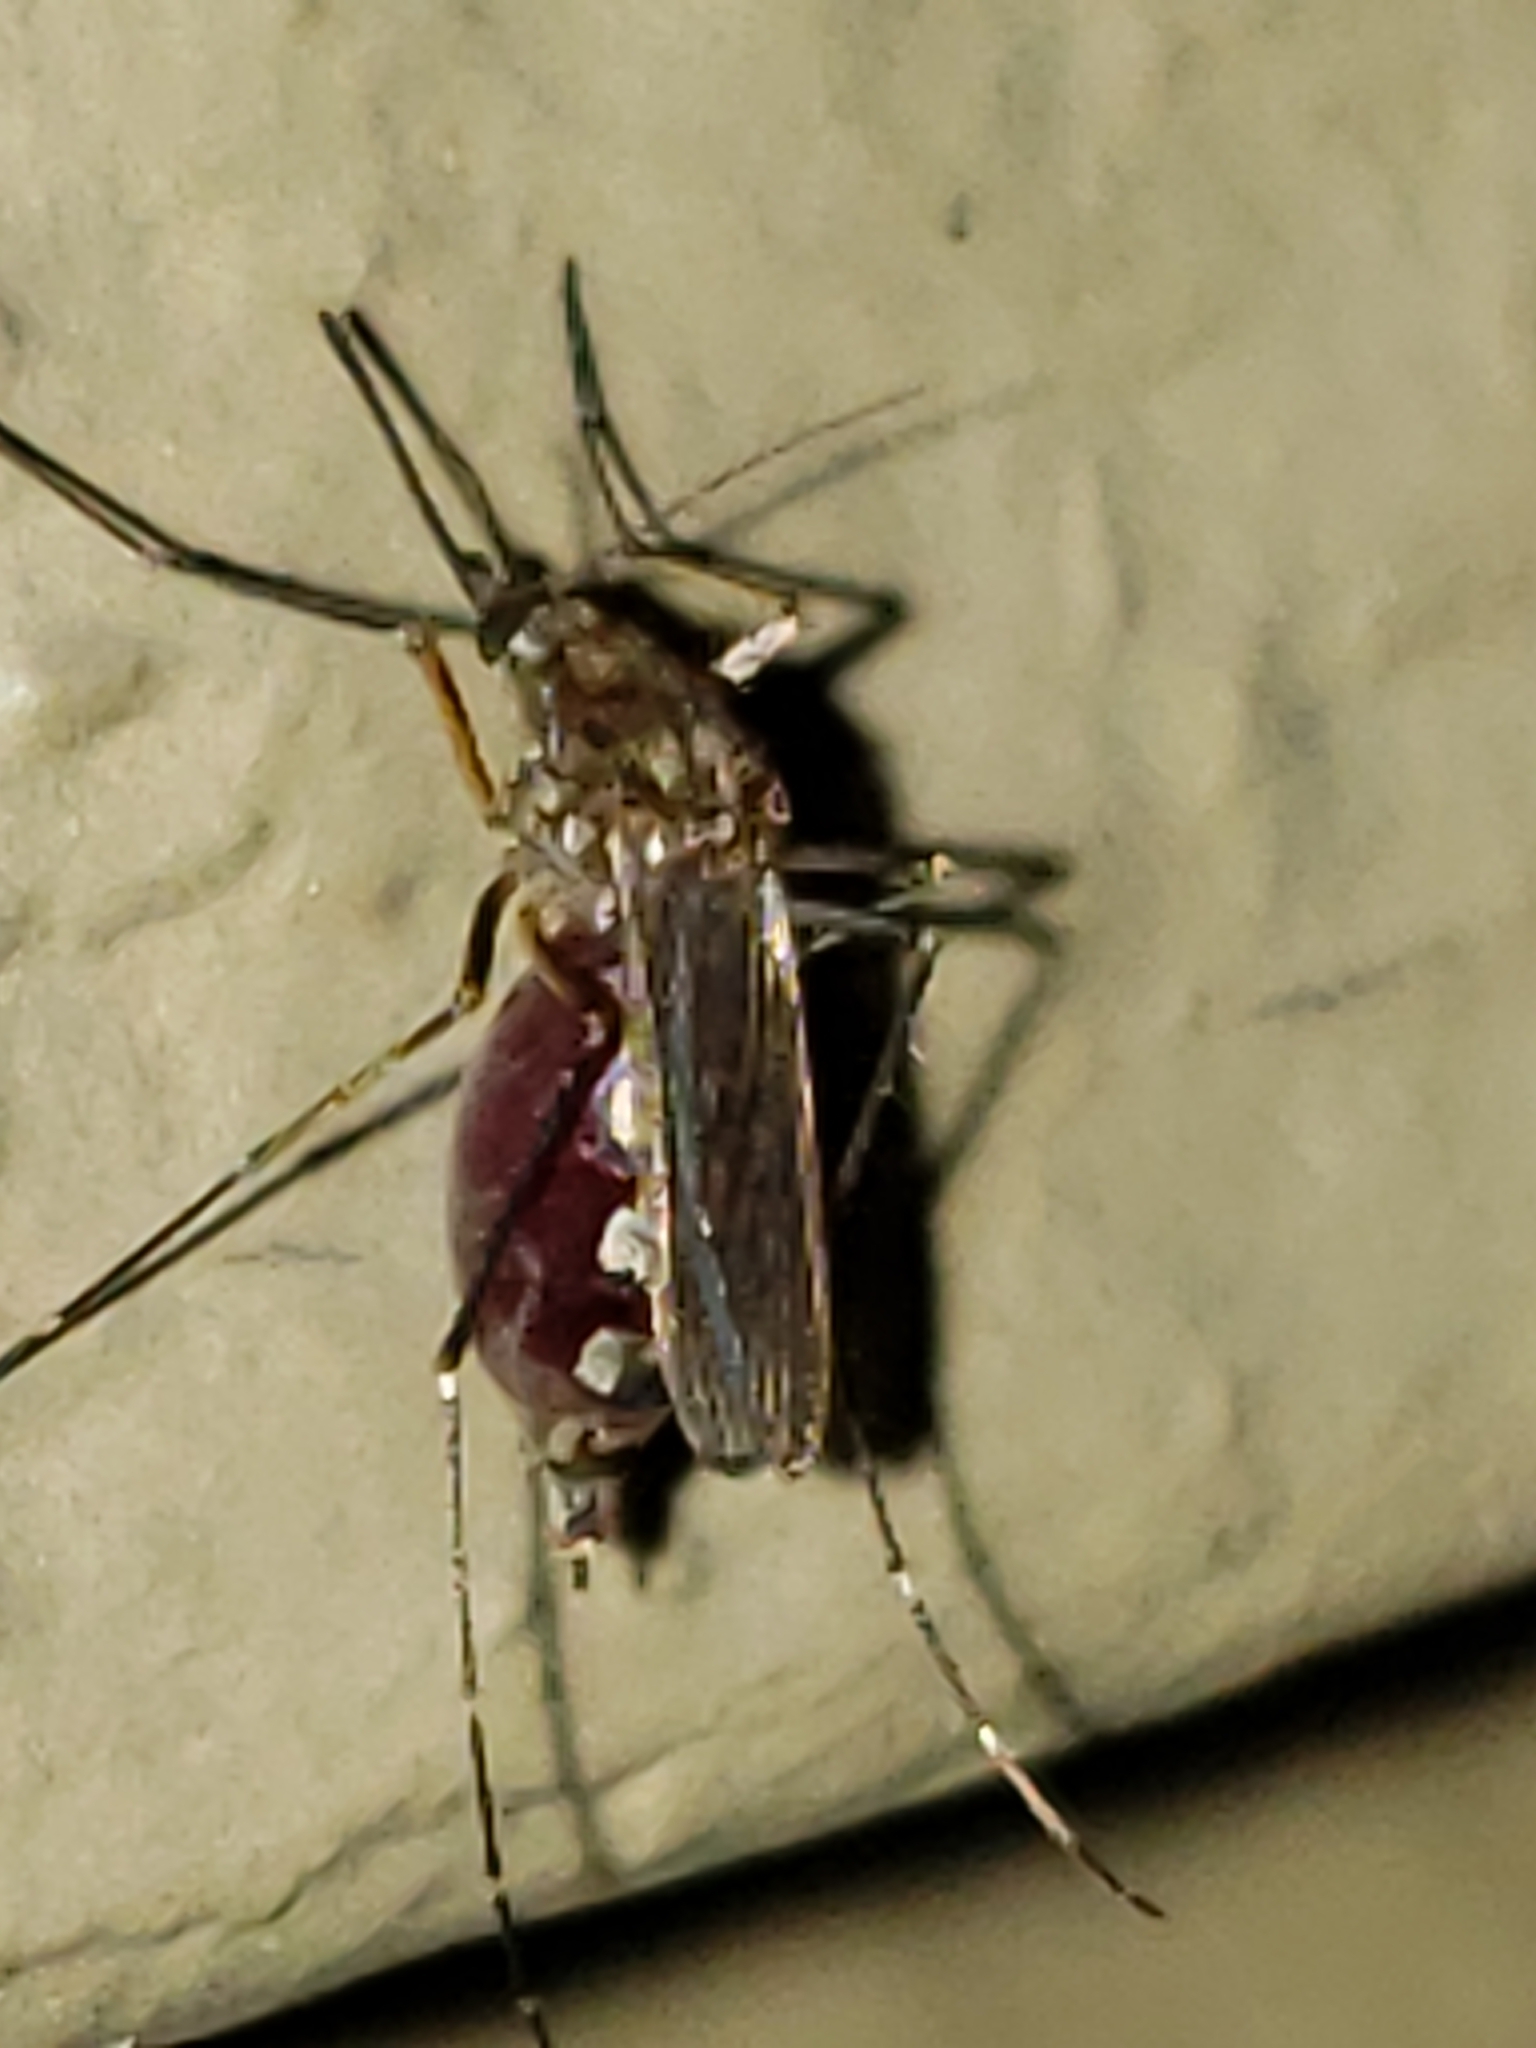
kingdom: Animalia
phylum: Arthropoda
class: Insecta
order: Diptera
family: Culicidae
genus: Aedes
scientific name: Aedes vexans
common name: Inland floodwater mosquito
